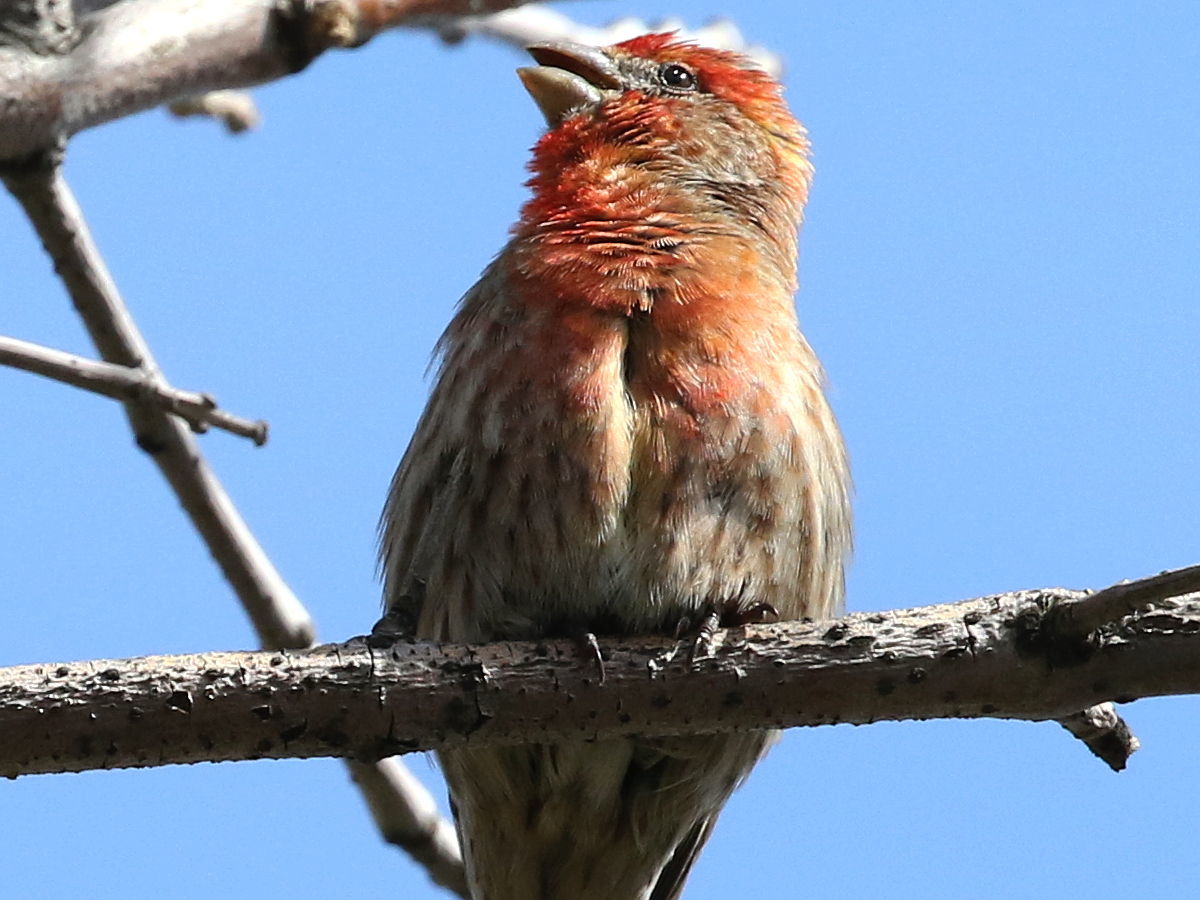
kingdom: Animalia
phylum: Chordata
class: Aves
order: Passeriformes
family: Fringillidae
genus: Haemorhous
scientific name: Haemorhous mexicanus
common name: House finch
